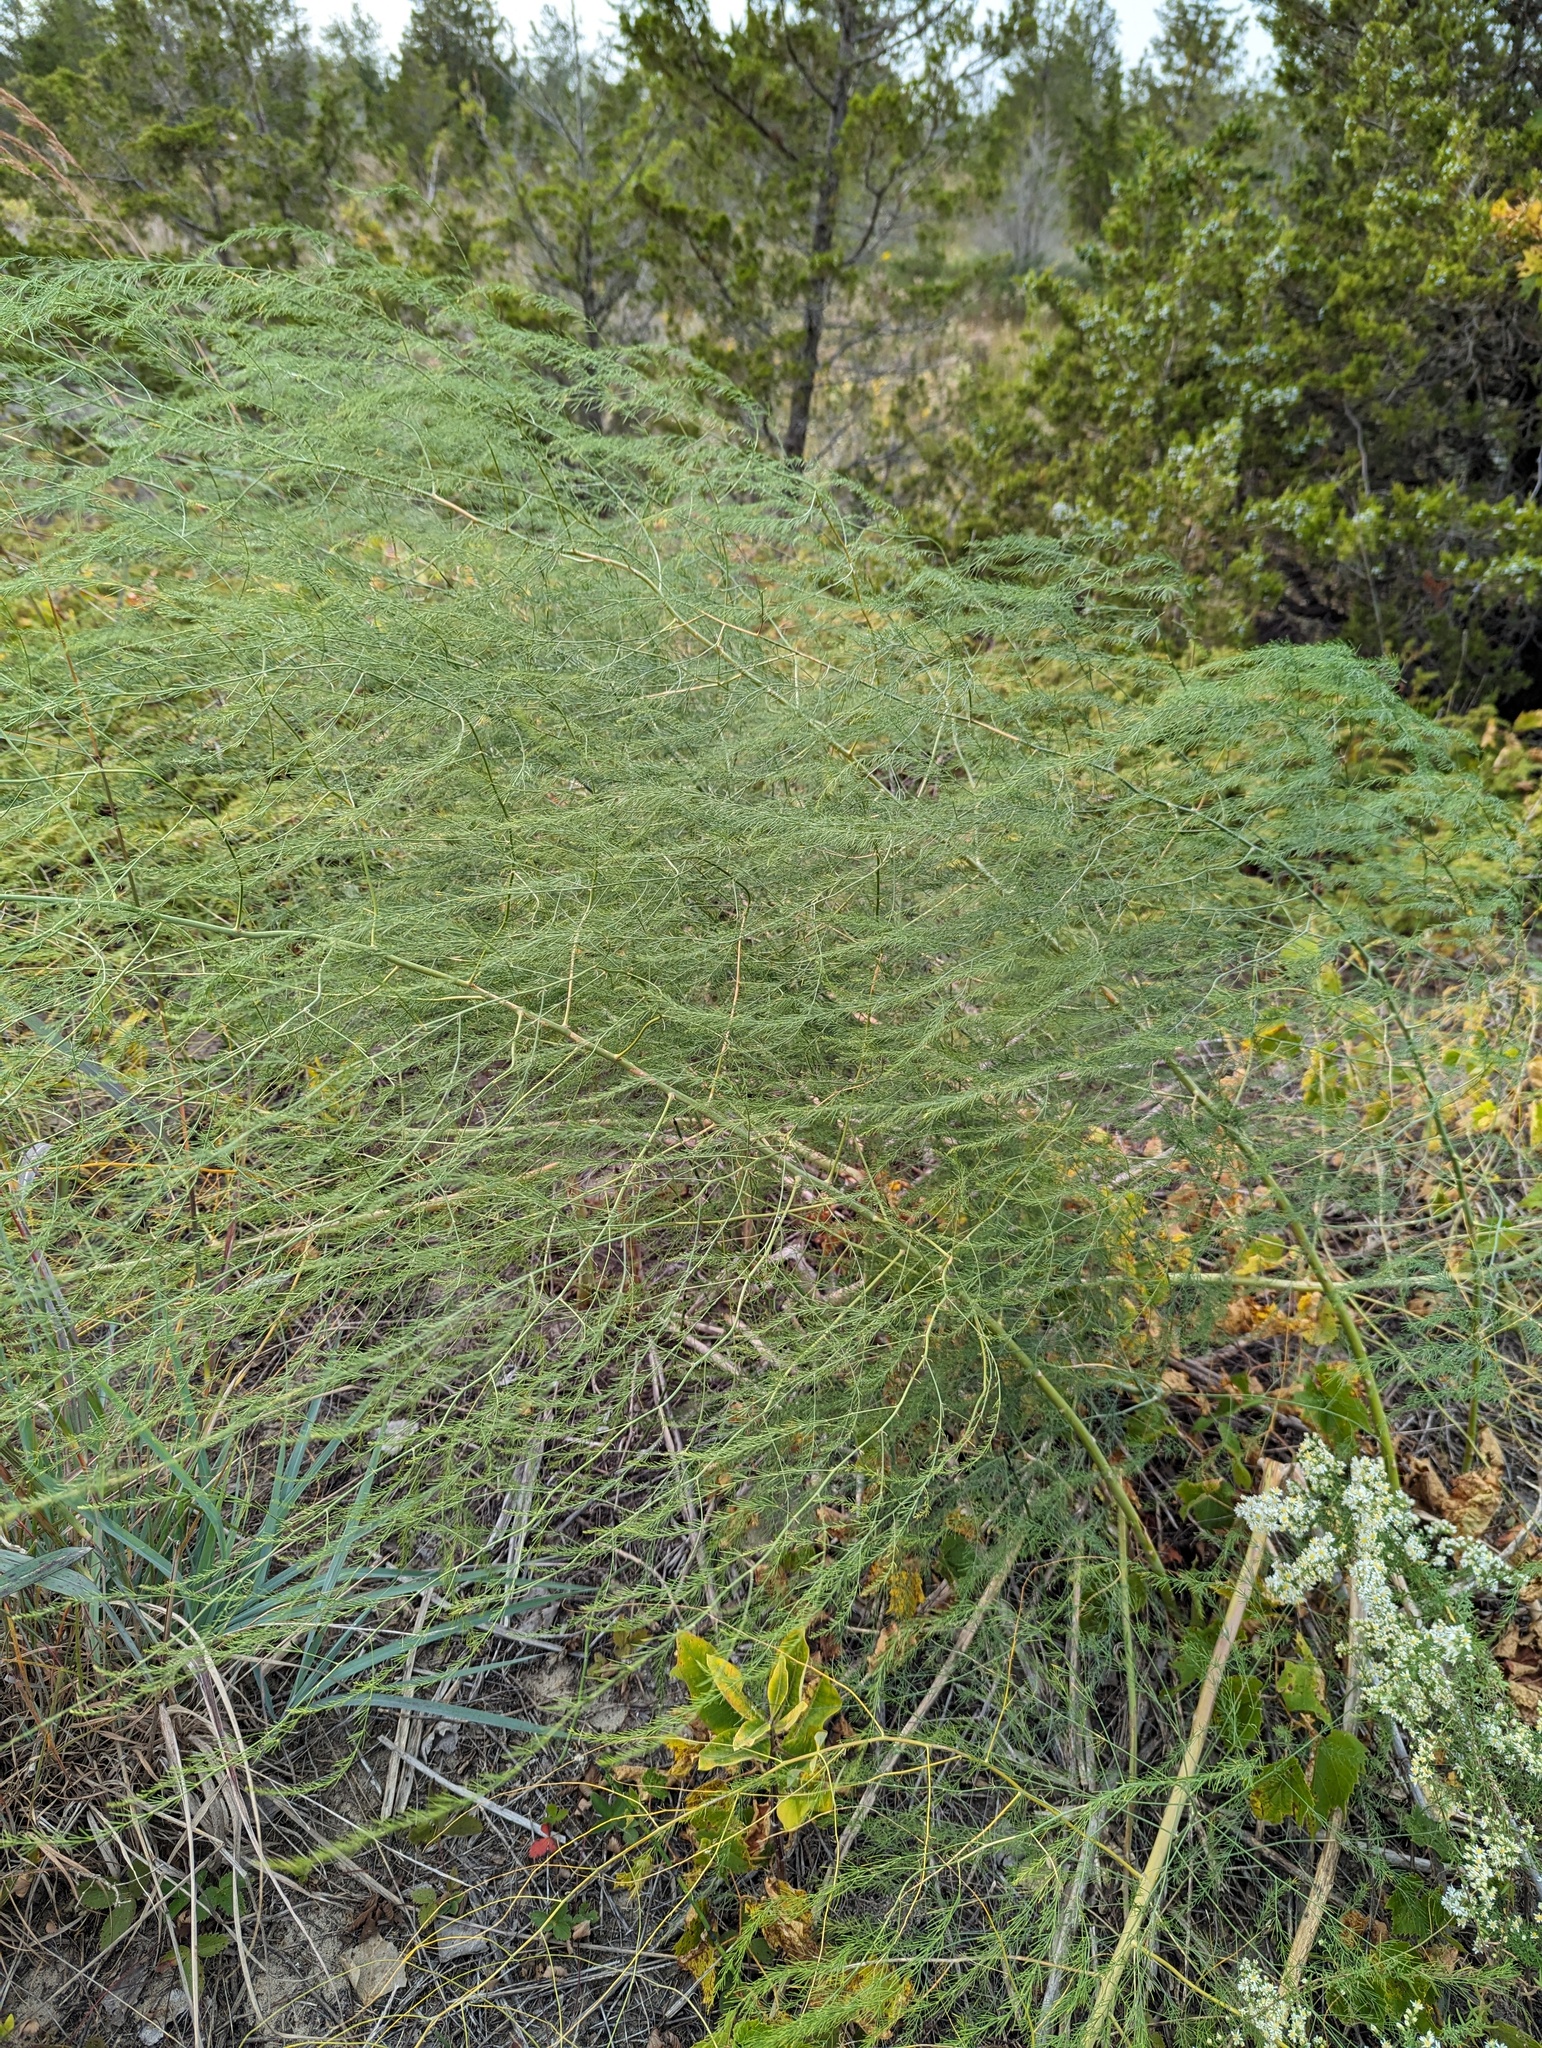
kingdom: Plantae
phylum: Tracheophyta
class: Liliopsida
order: Asparagales
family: Asparagaceae
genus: Asparagus
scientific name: Asparagus officinalis
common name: Garden asparagus
